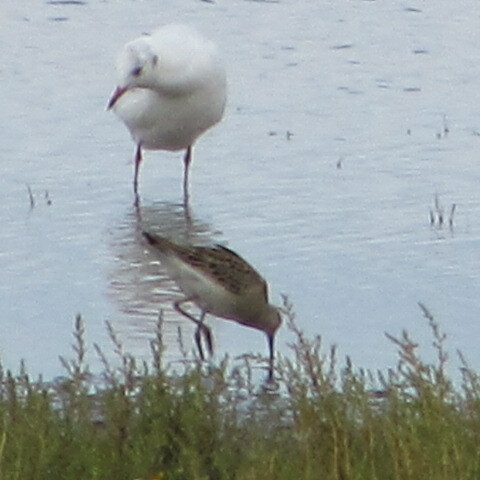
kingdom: Animalia
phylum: Chordata
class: Aves
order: Charadriiformes
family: Scolopacidae
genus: Calidris
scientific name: Calidris pugnax
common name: Ruff
